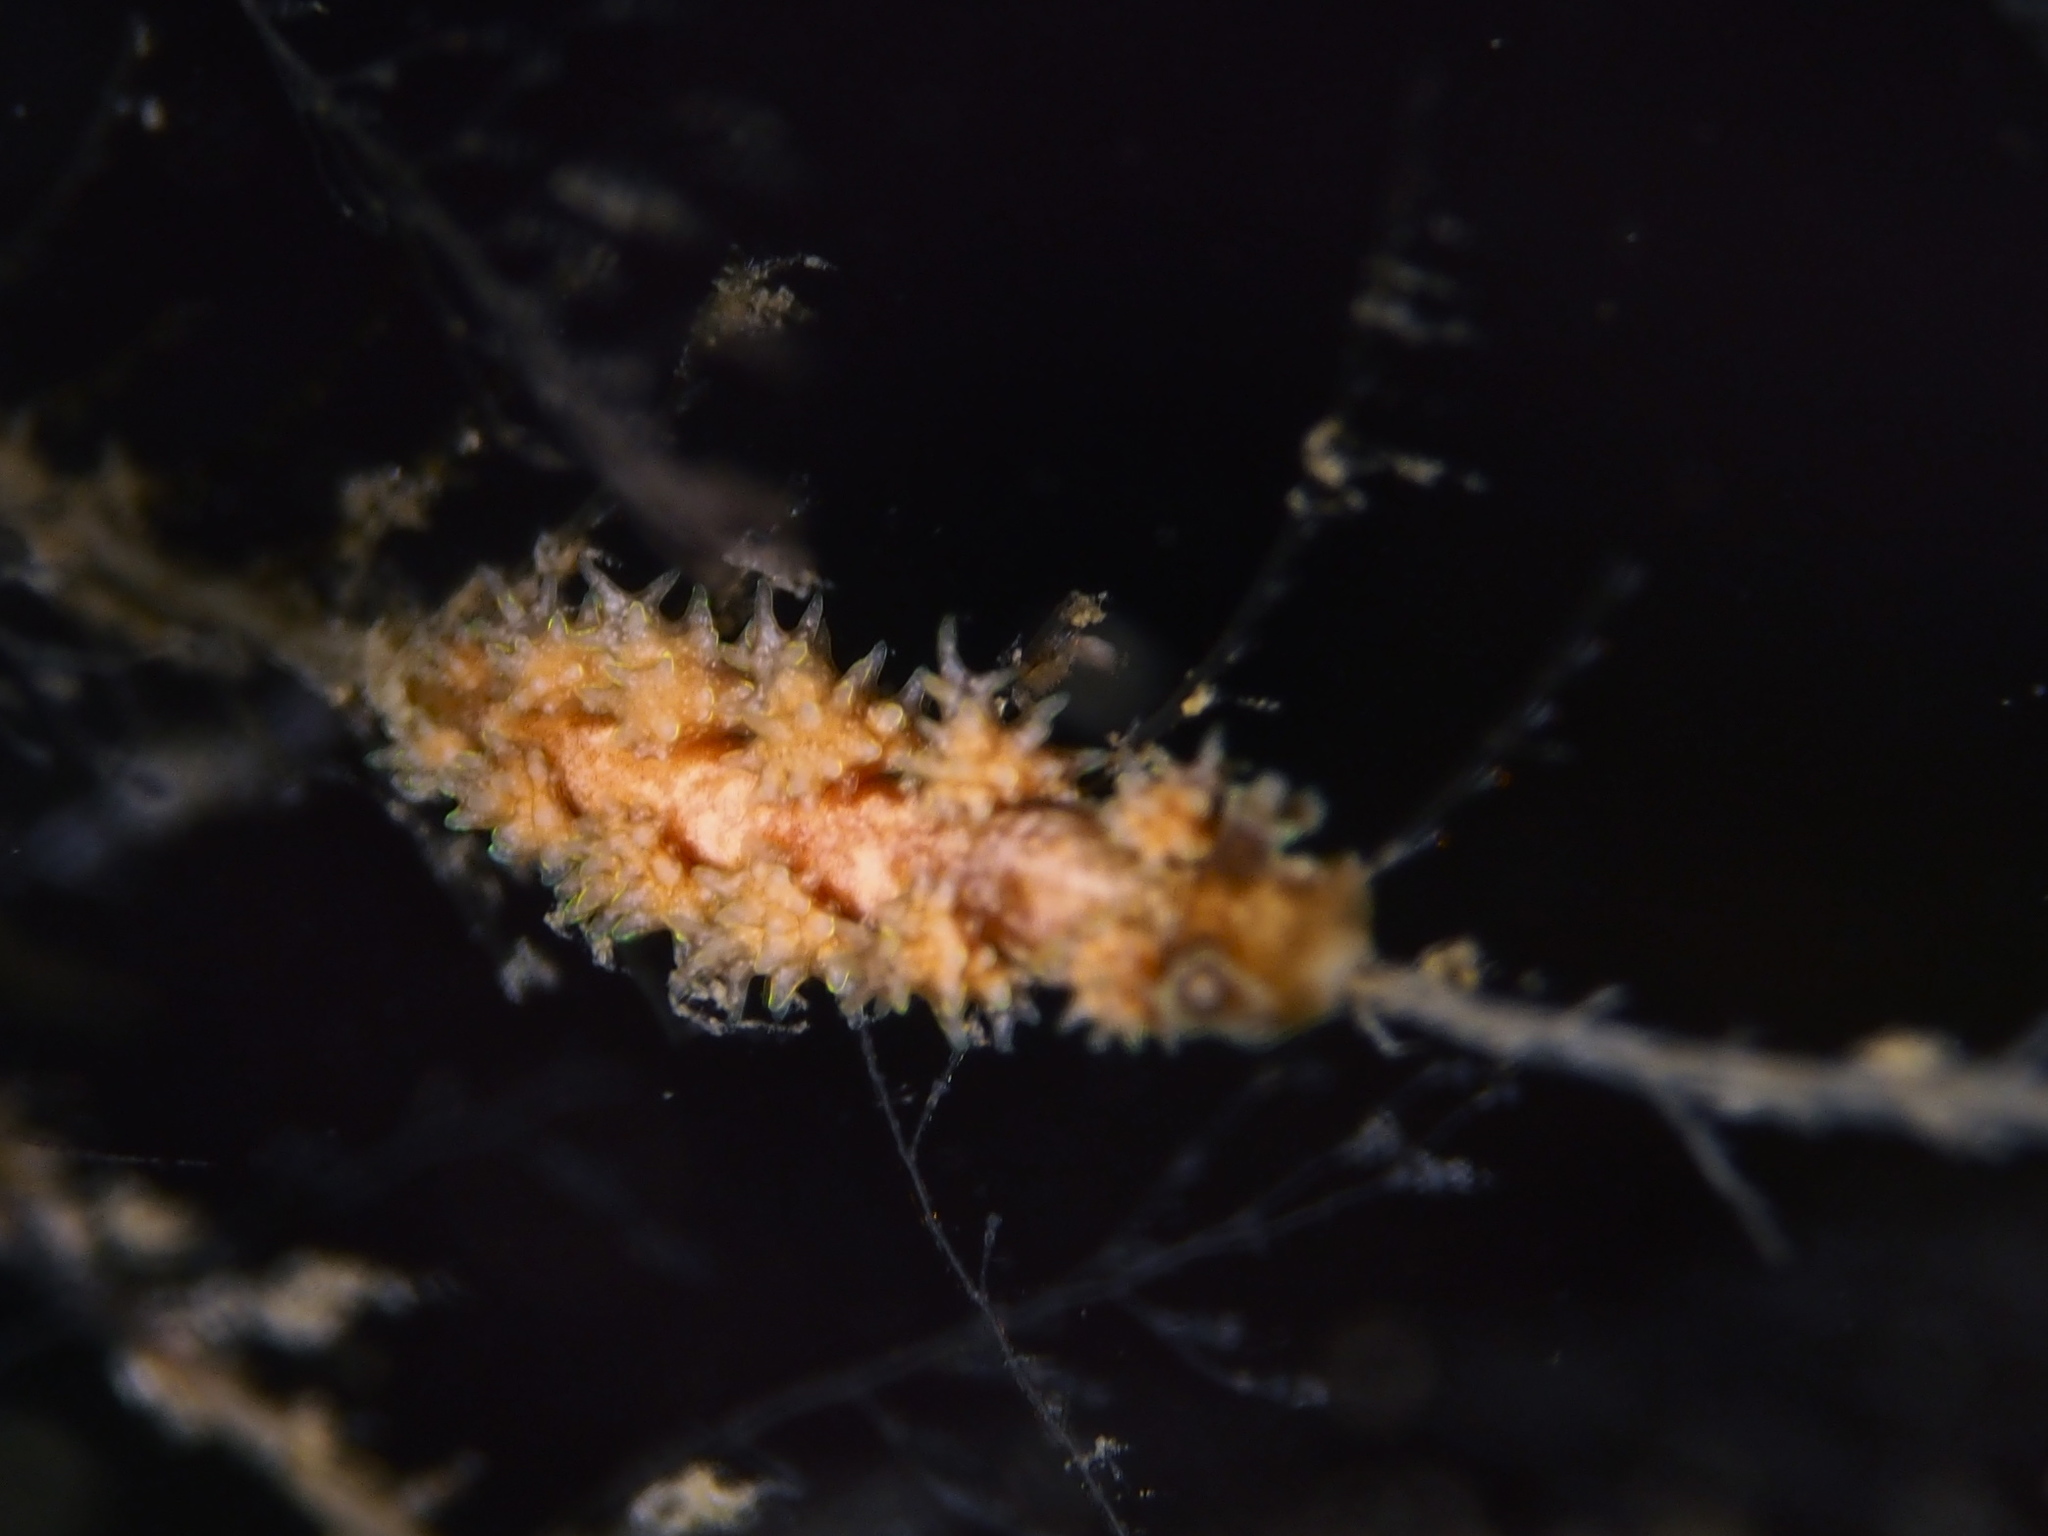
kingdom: Animalia
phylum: Mollusca
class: Gastropoda
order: Nudibranchia
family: Dotidae
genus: Doto
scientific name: Doto hystrix
